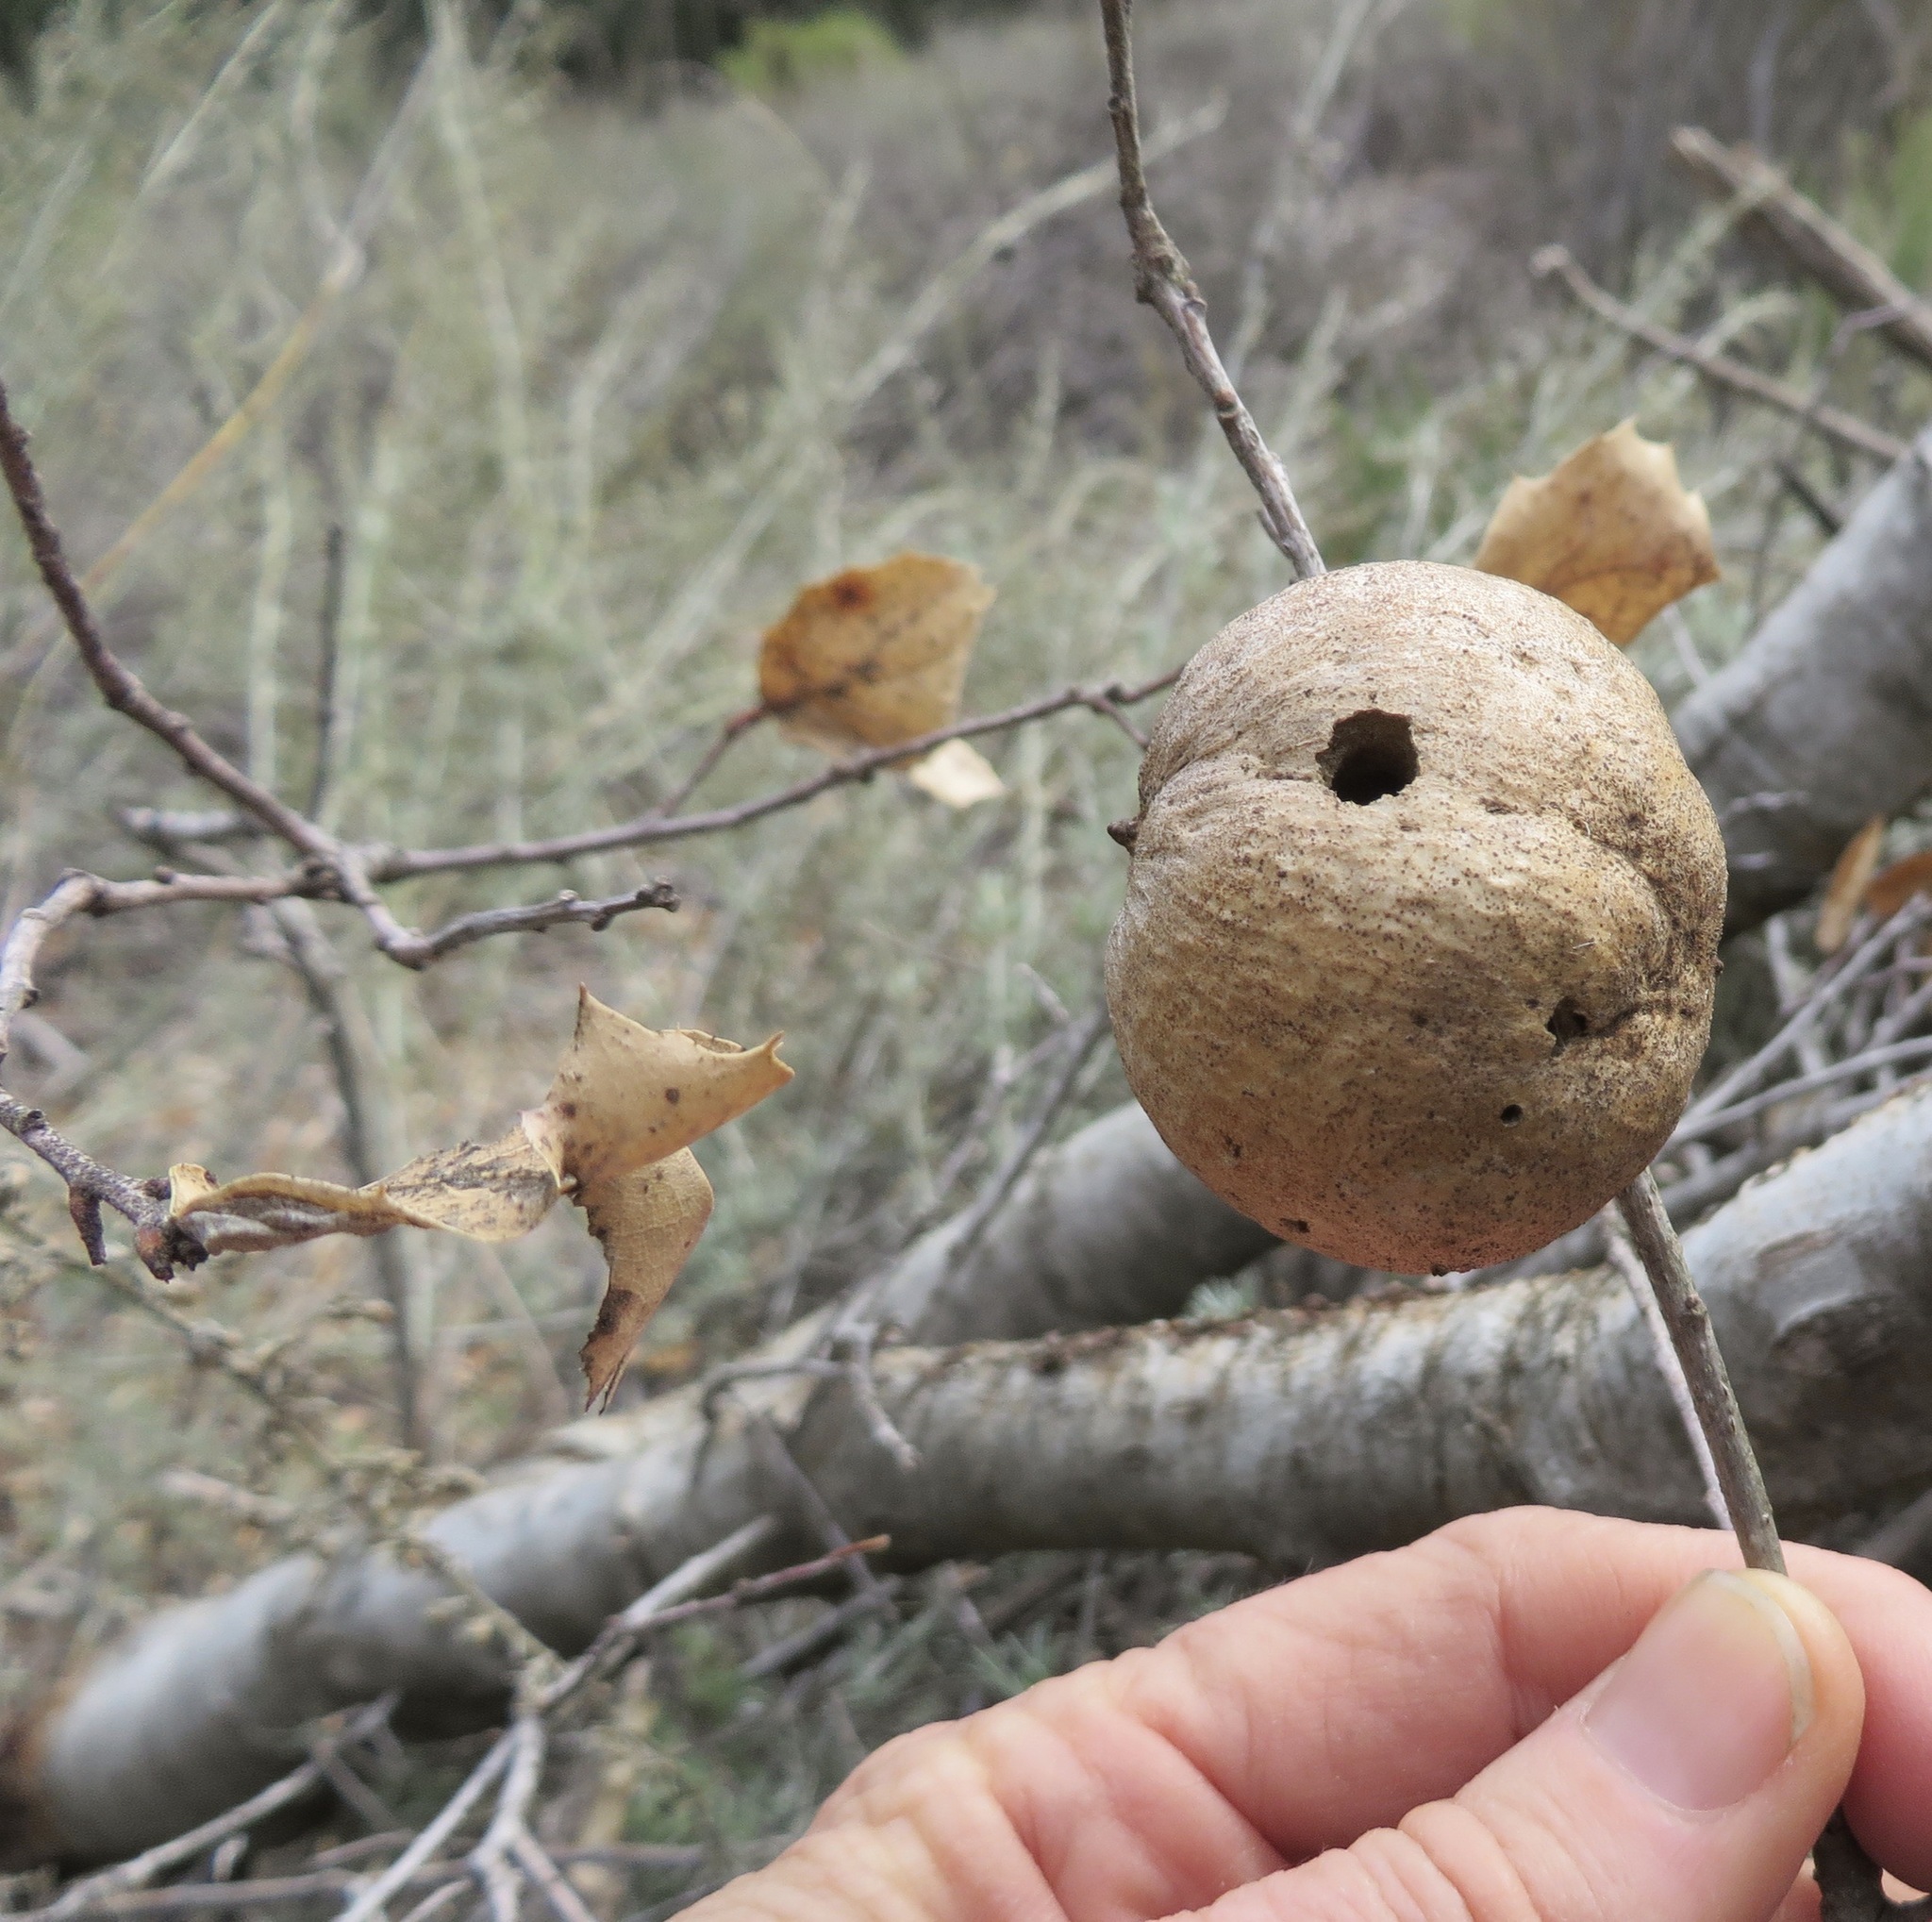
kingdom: Animalia
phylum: Arthropoda
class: Insecta
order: Hymenoptera
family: Cynipidae
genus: Andricus
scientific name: Andricus quercuscalifornicus
